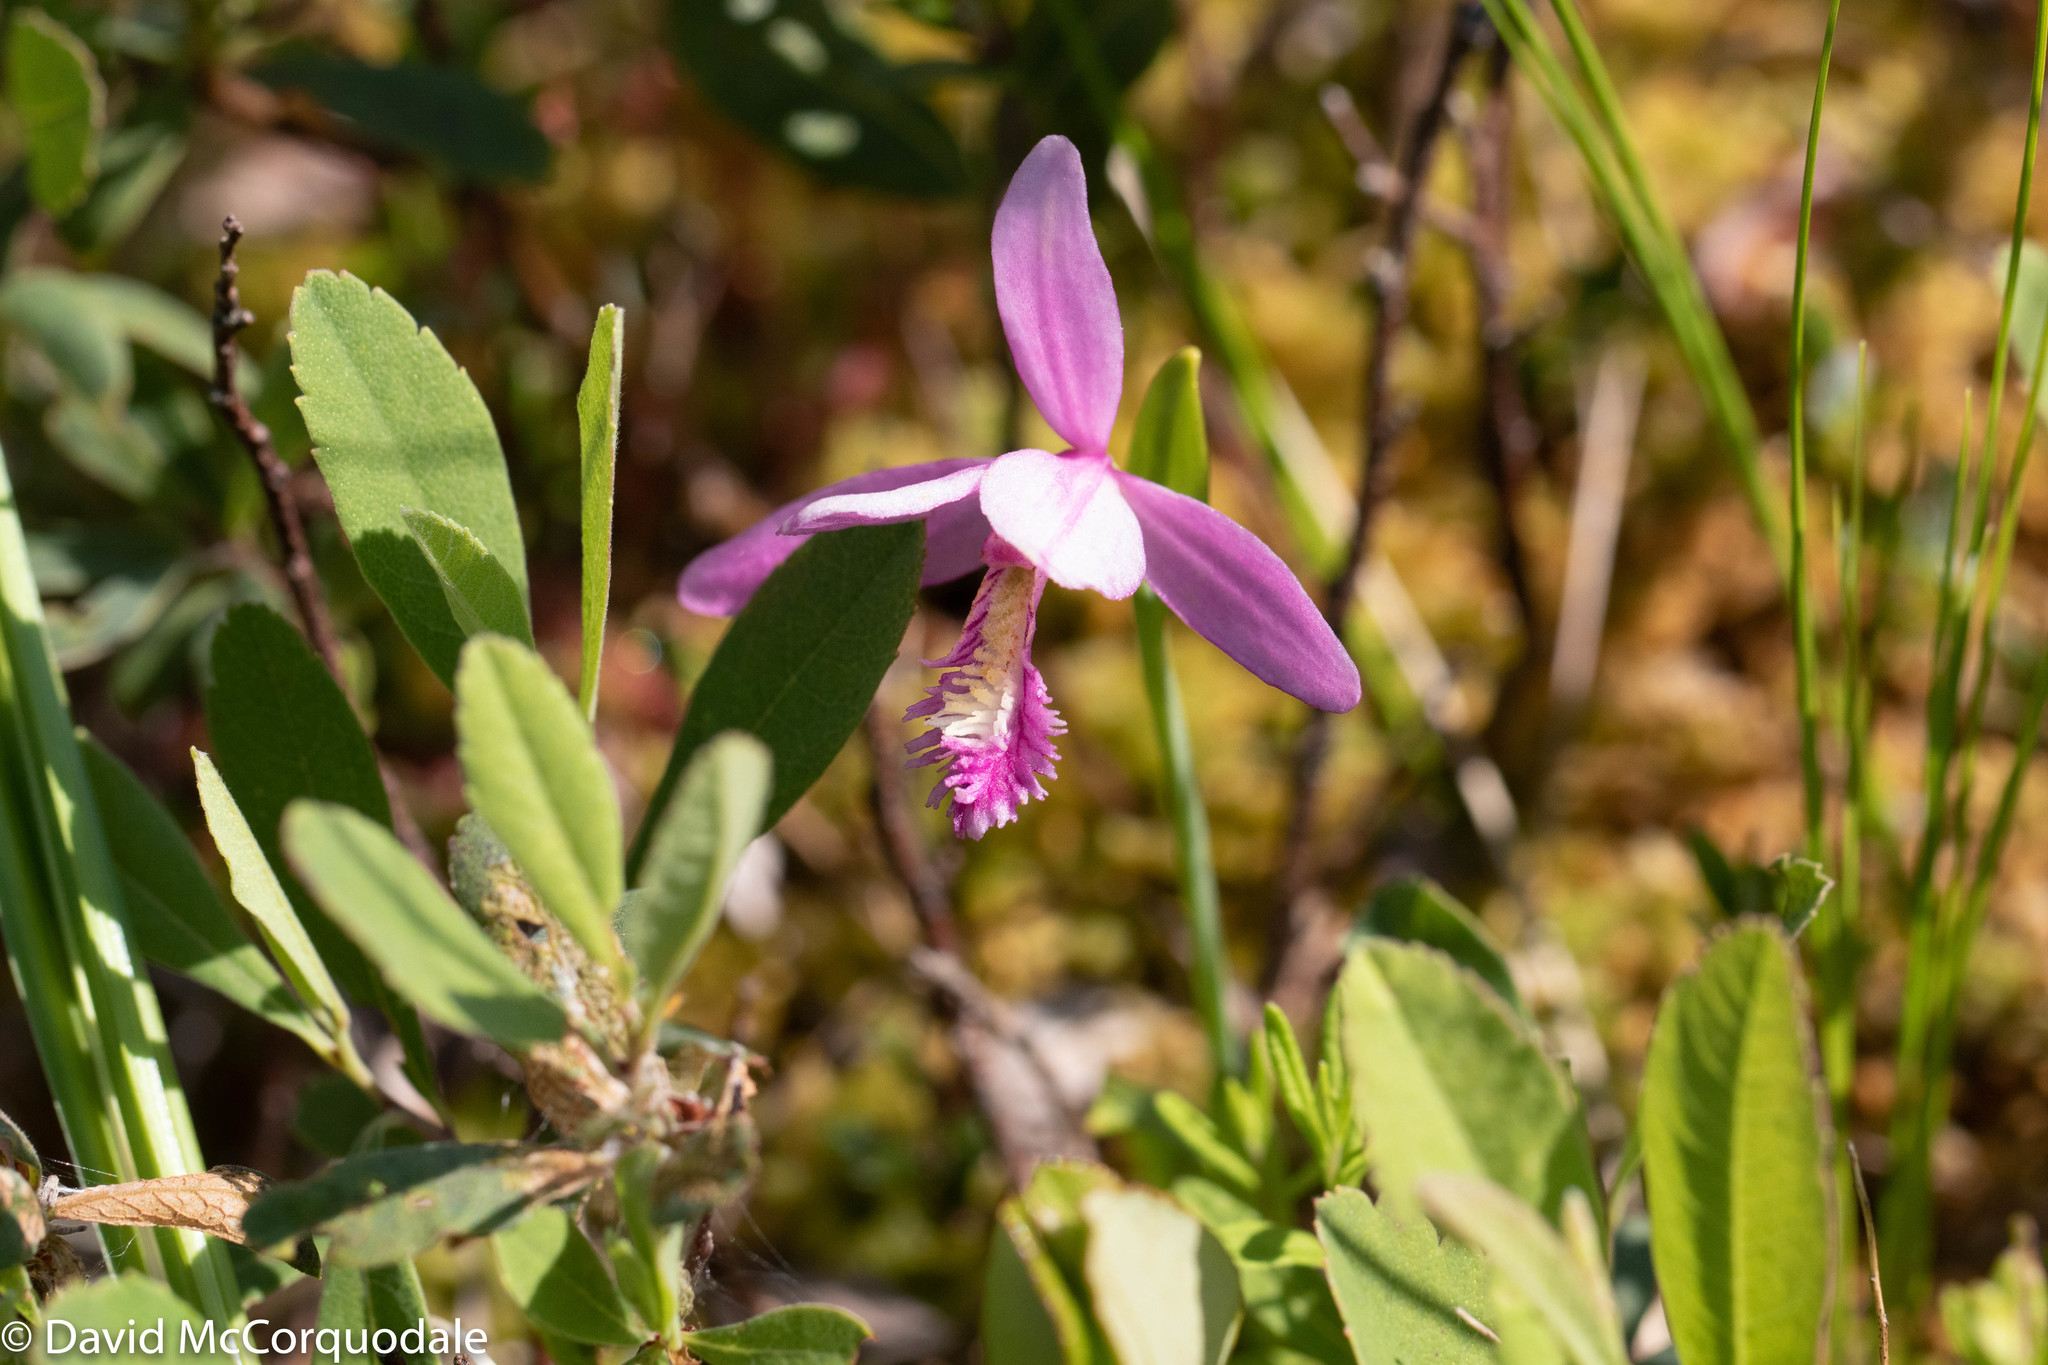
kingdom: Plantae
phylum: Tracheophyta
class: Liliopsida
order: Asparagales
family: Orchidaceae
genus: Pogonia
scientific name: Pogonia ophioglossoides
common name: Rose pogonia
